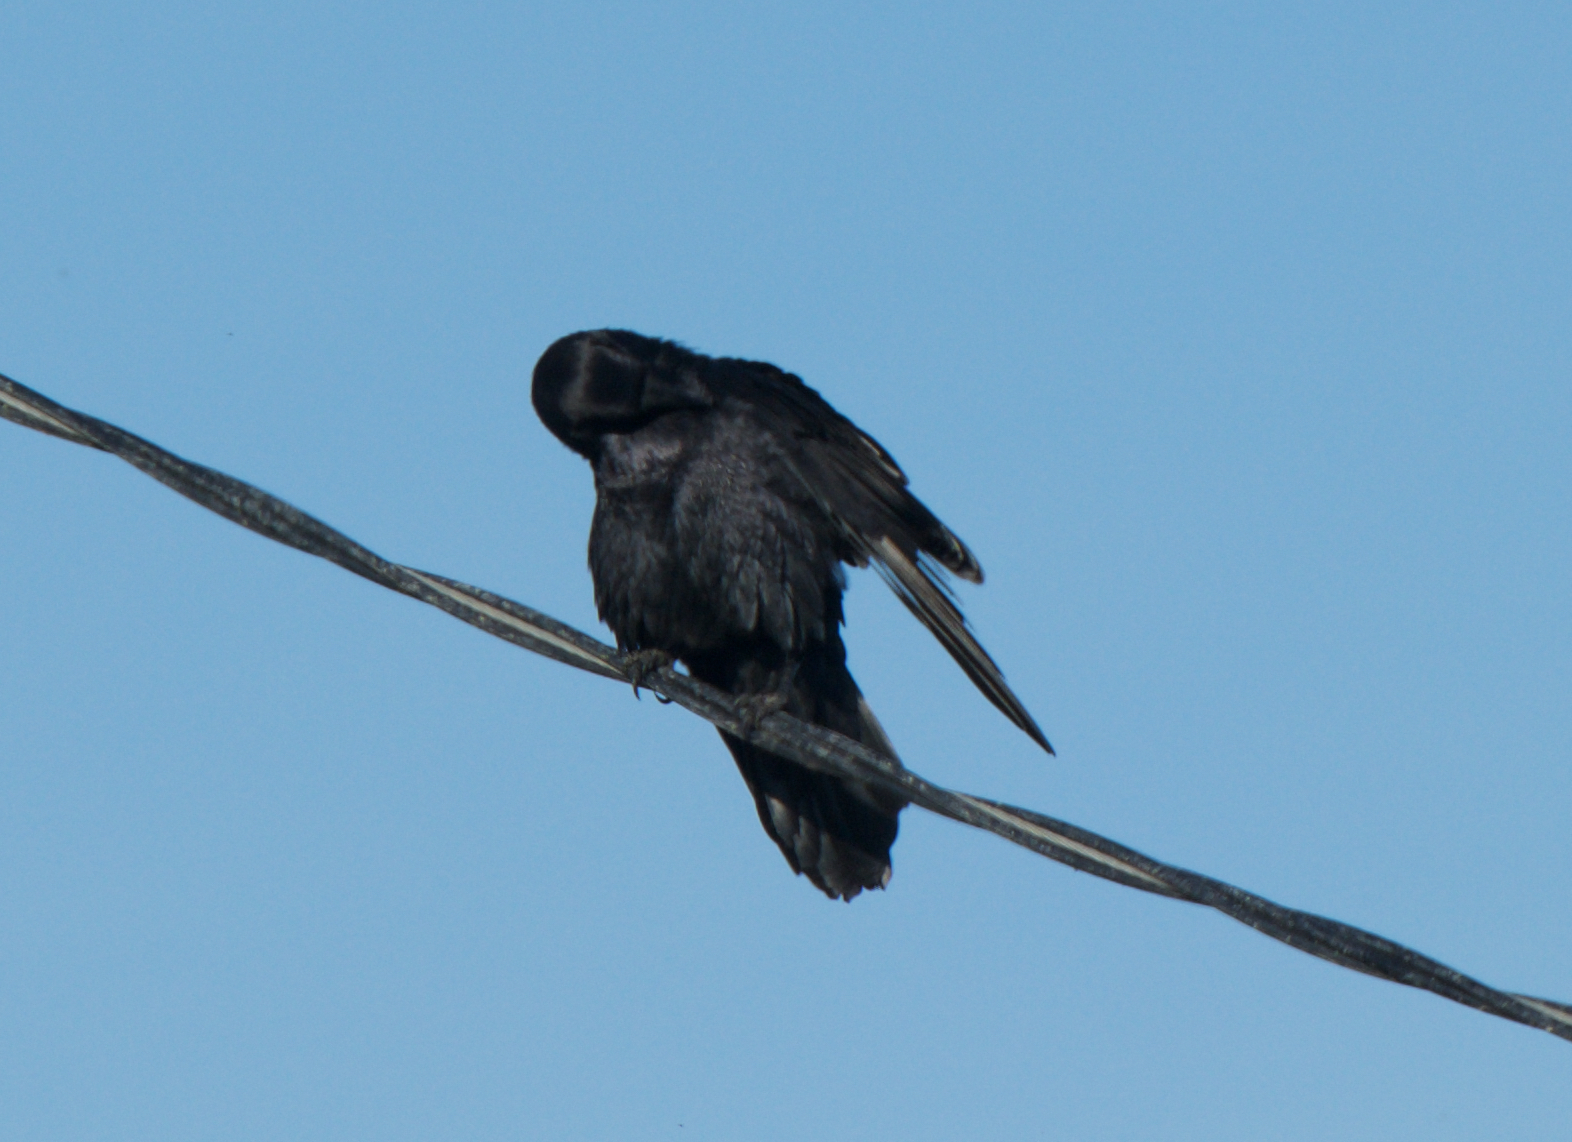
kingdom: Animalia
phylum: Chordata
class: Aves
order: Passeriformes
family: Corvidae
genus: Corvus
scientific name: Corvus corax
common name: Common raven
